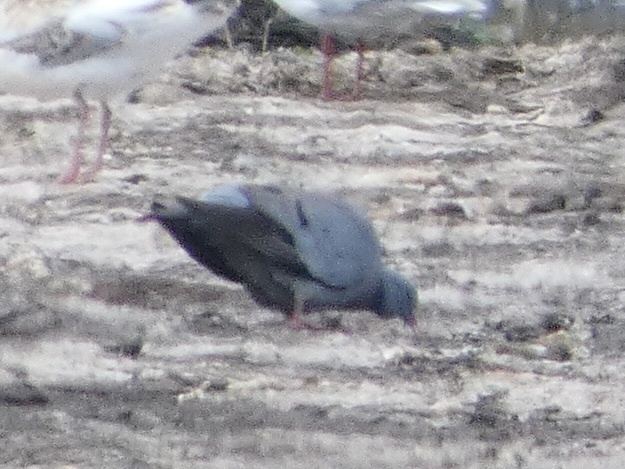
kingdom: Animalia
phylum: Chordata
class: Aves
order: Columbiformes
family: Columbidae
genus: Columba
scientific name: Columba oenas
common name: Stock dove
